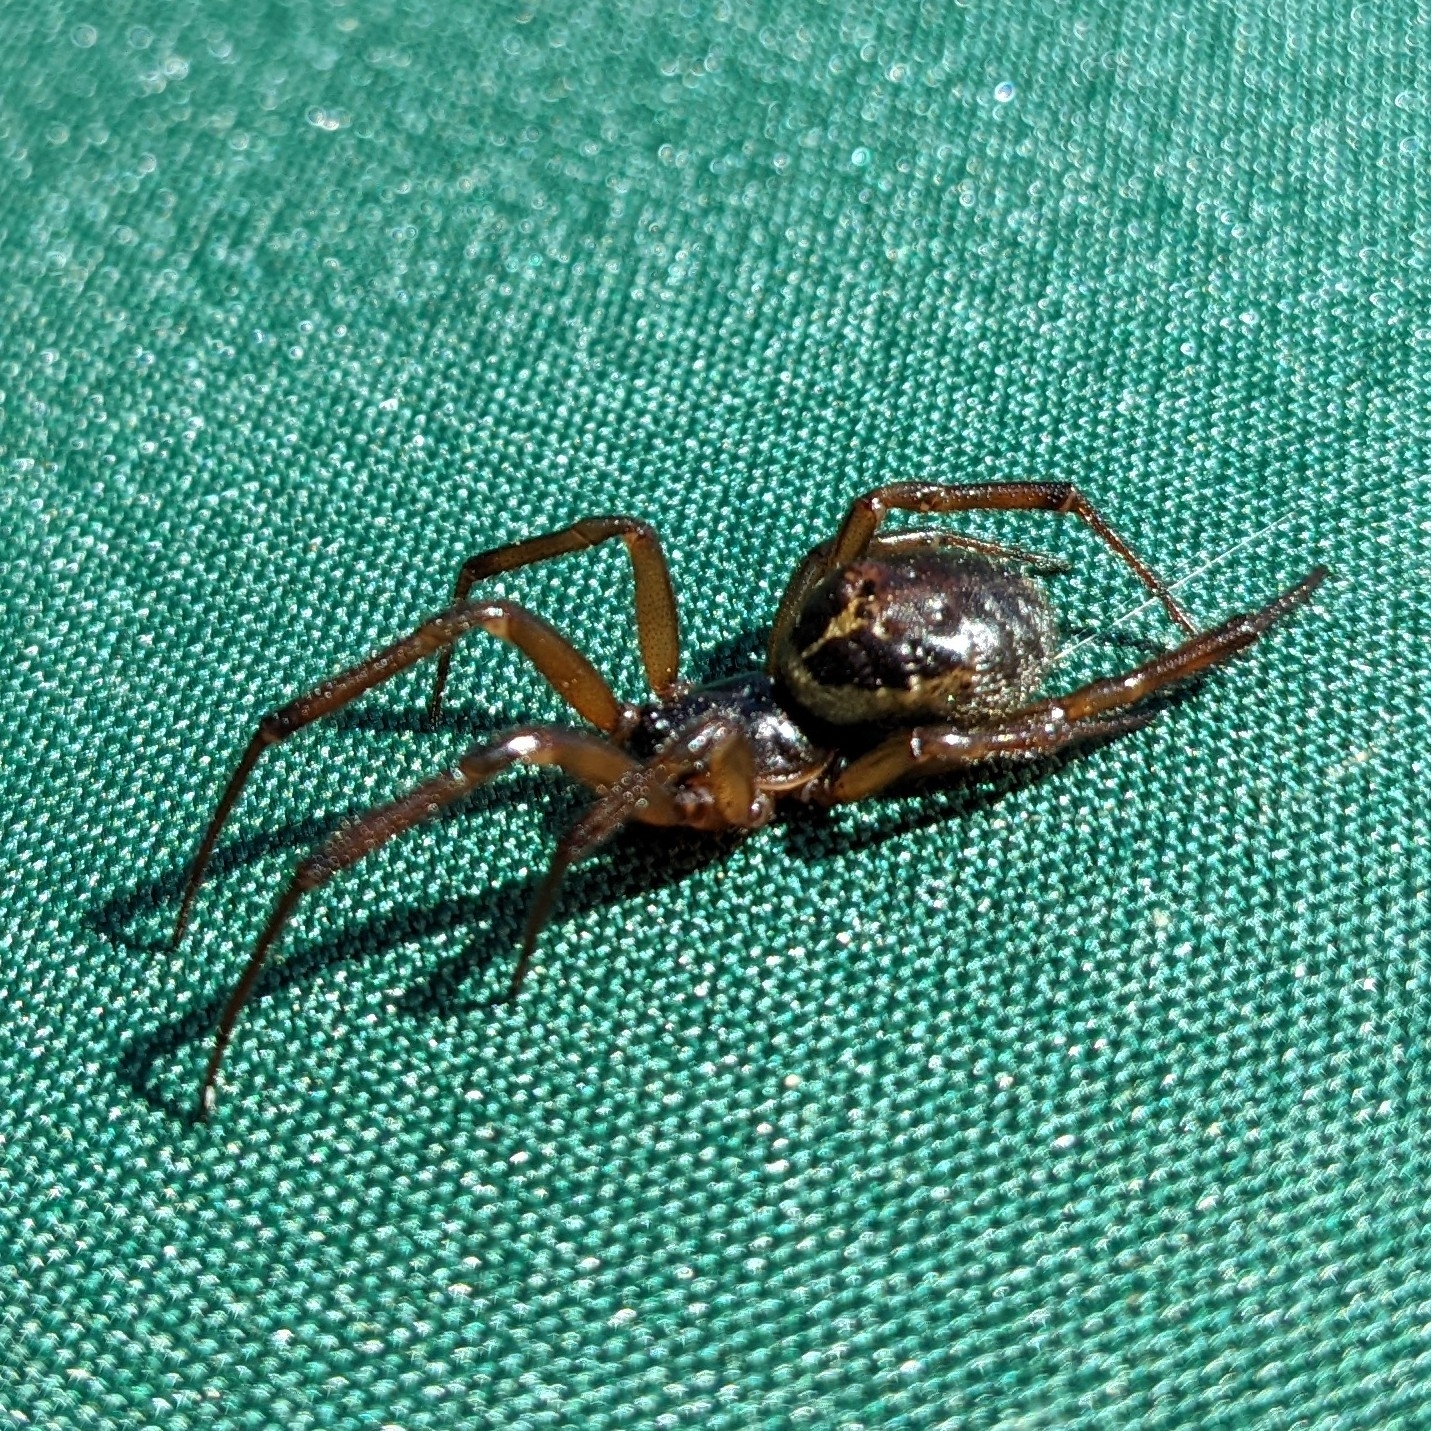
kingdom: Animalia
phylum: Arthropoda
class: Arachnida
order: Araneae
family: Theridiidae
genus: Steatoda
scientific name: Steatoda nobilis
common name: Cobweb weaver
